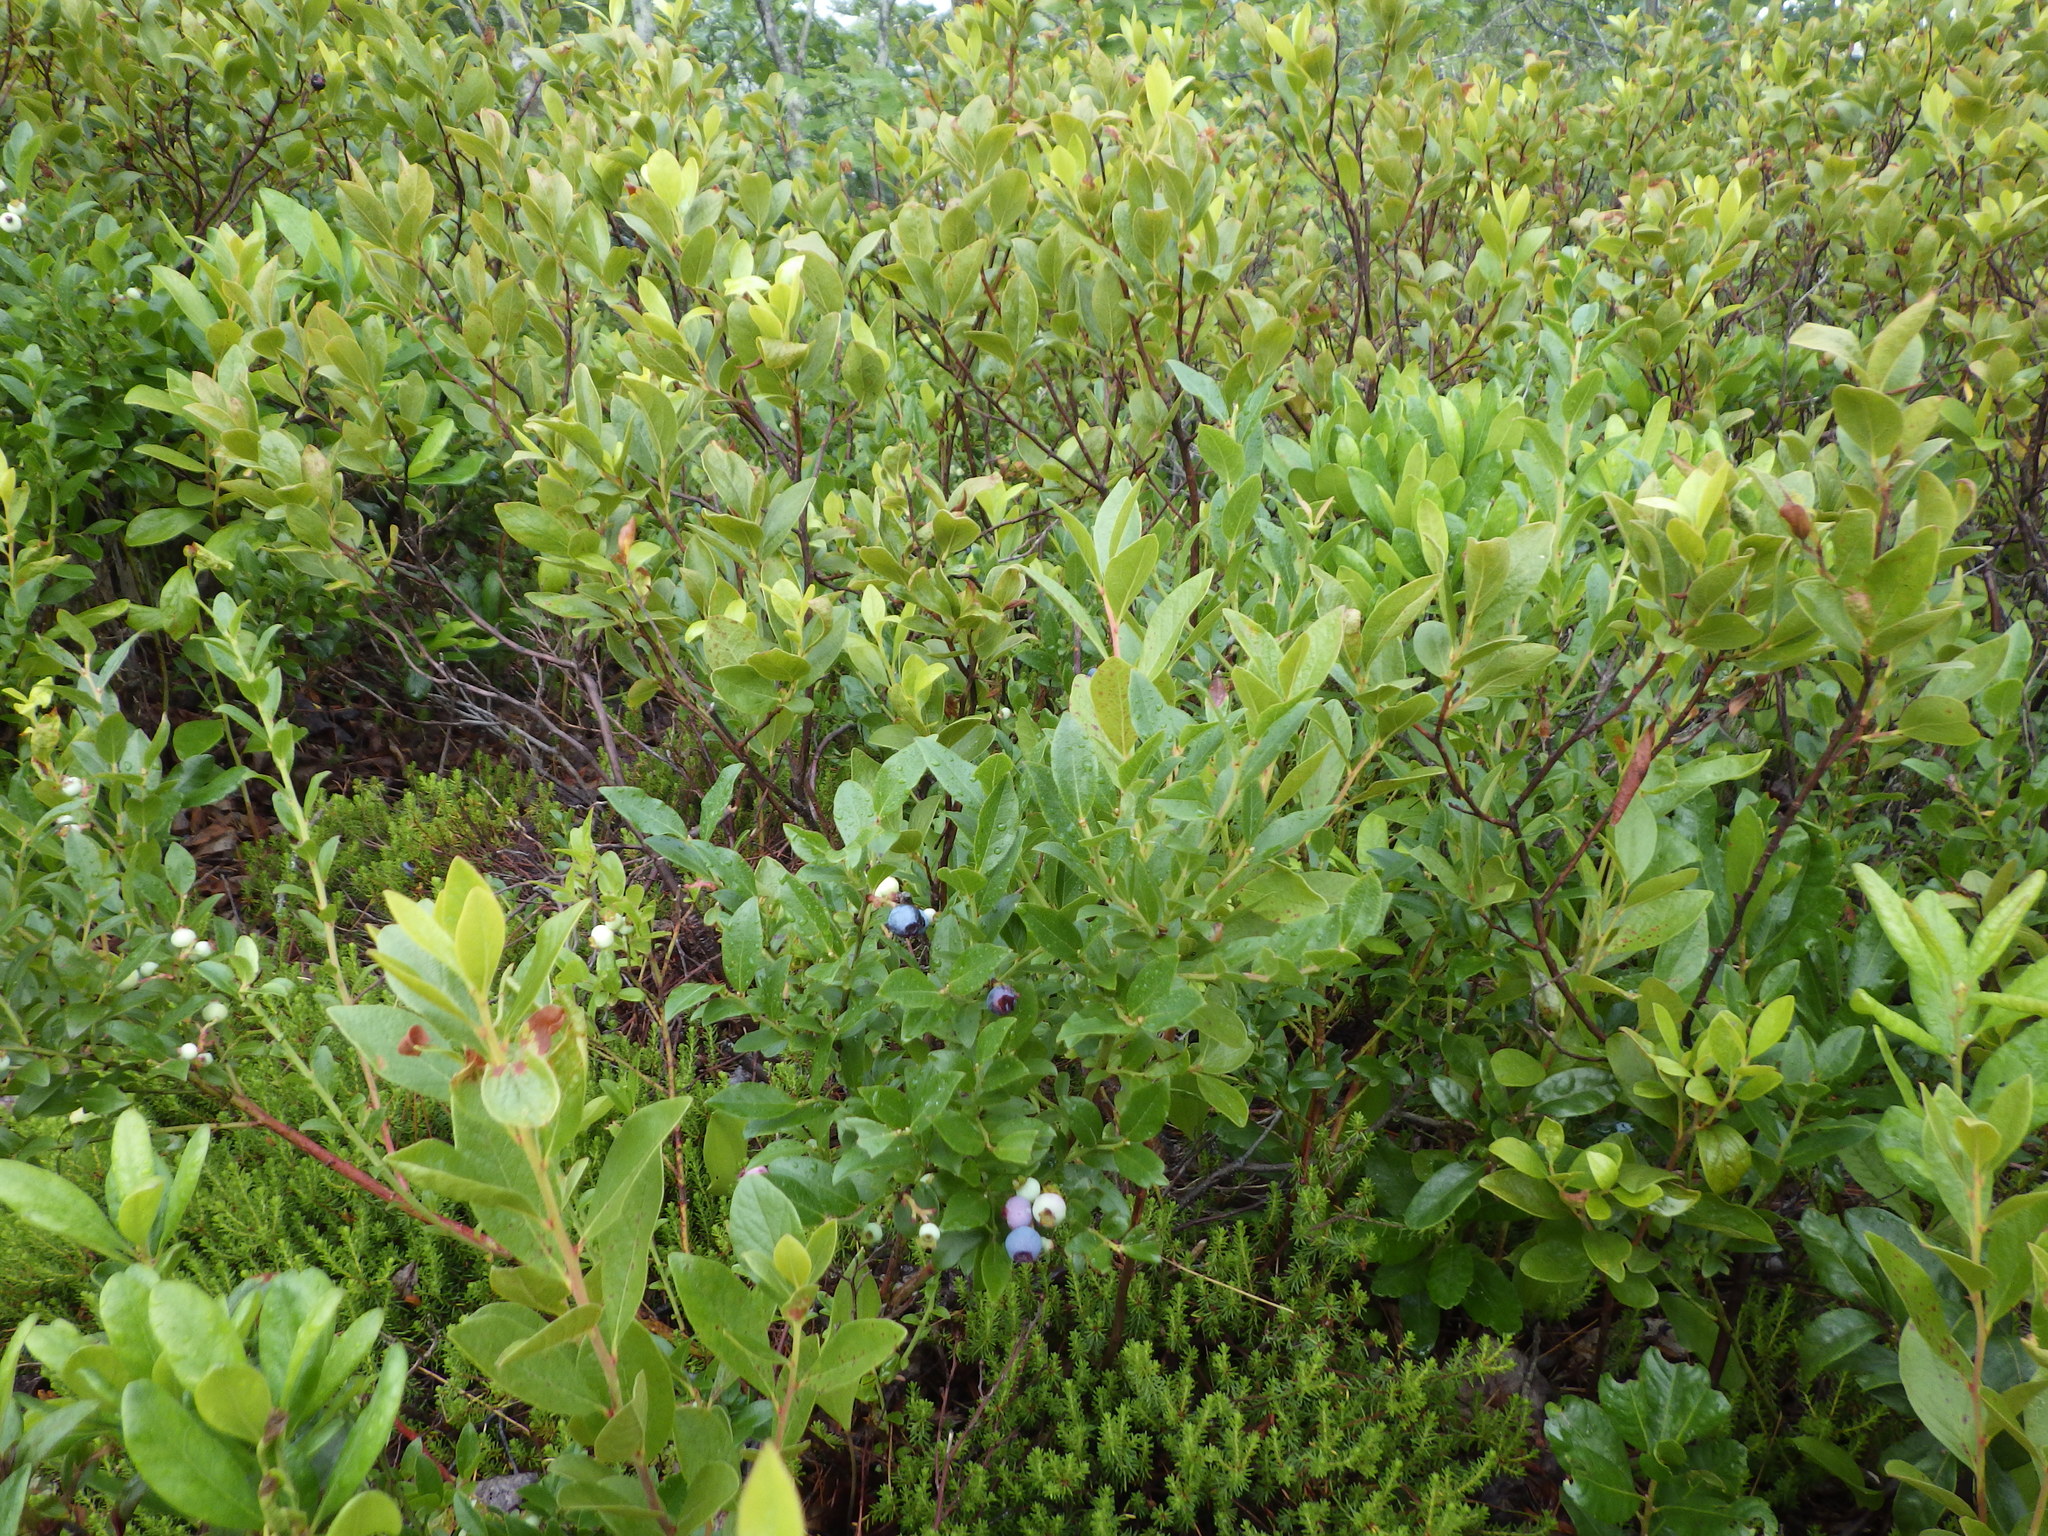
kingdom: Plantae
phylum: Tracheophyta
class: Magnoliopsida
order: Ericales
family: Ericaceae
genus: Vaccinium
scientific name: Vaccinium angustifolium
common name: Early lowbush blueberry
